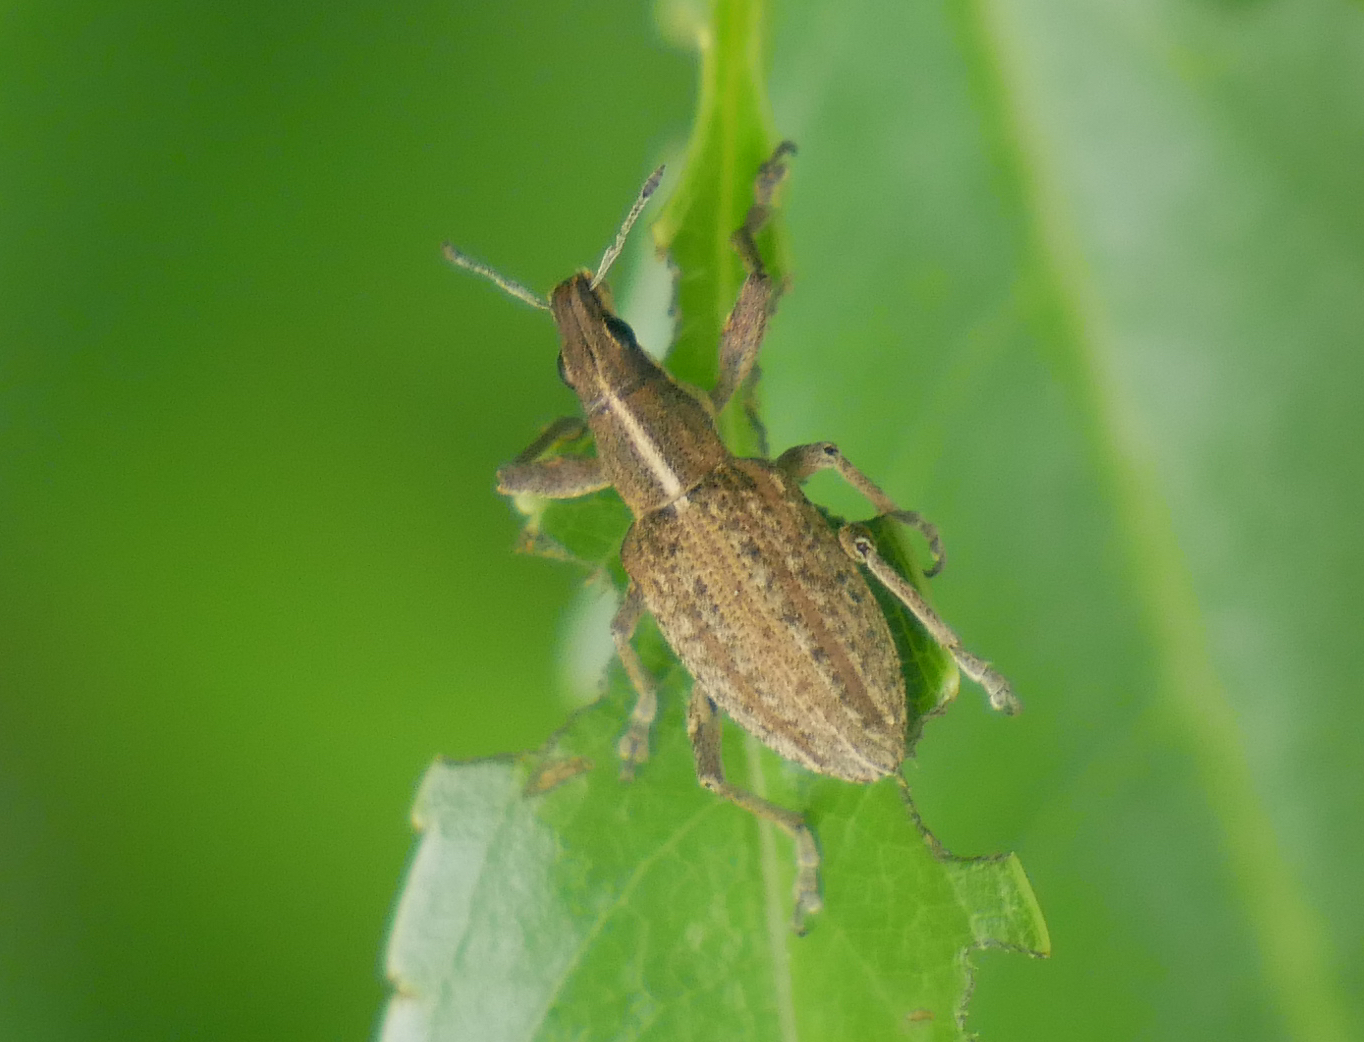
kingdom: Animalia
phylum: Arthropoda
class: Insecta
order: Coleoptera
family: Curculionidae
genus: Charagmus
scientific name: Charagmus gressorius
